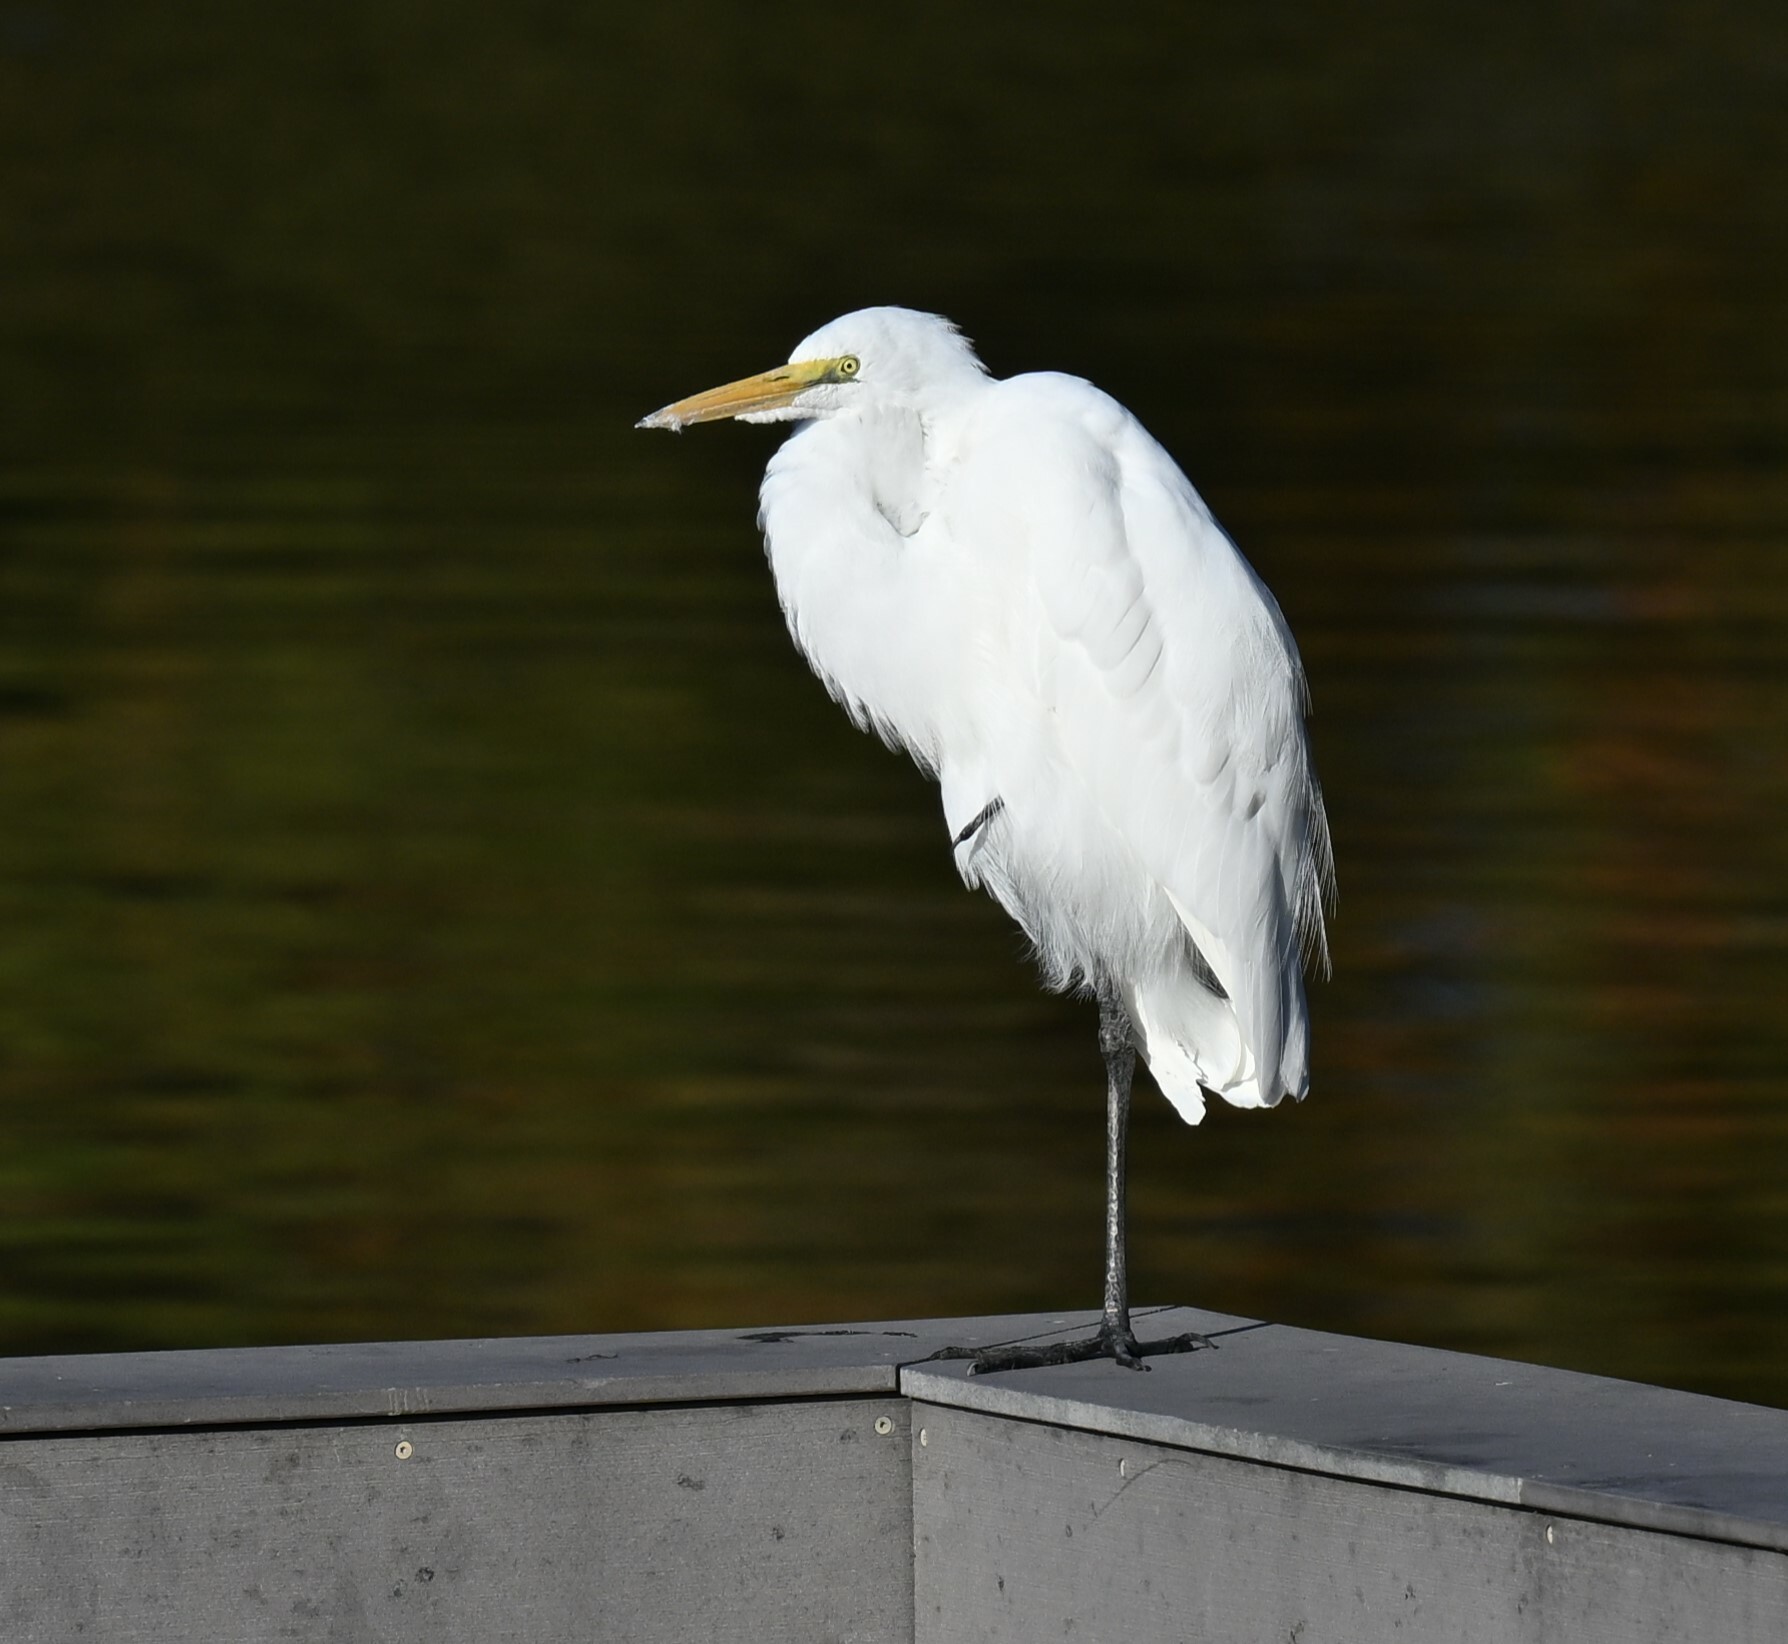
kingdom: Animalia
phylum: Chordata
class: Aves
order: Pelecaniformes
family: Ardeidae
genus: Ardea
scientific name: Ardea alba
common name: Great egret
